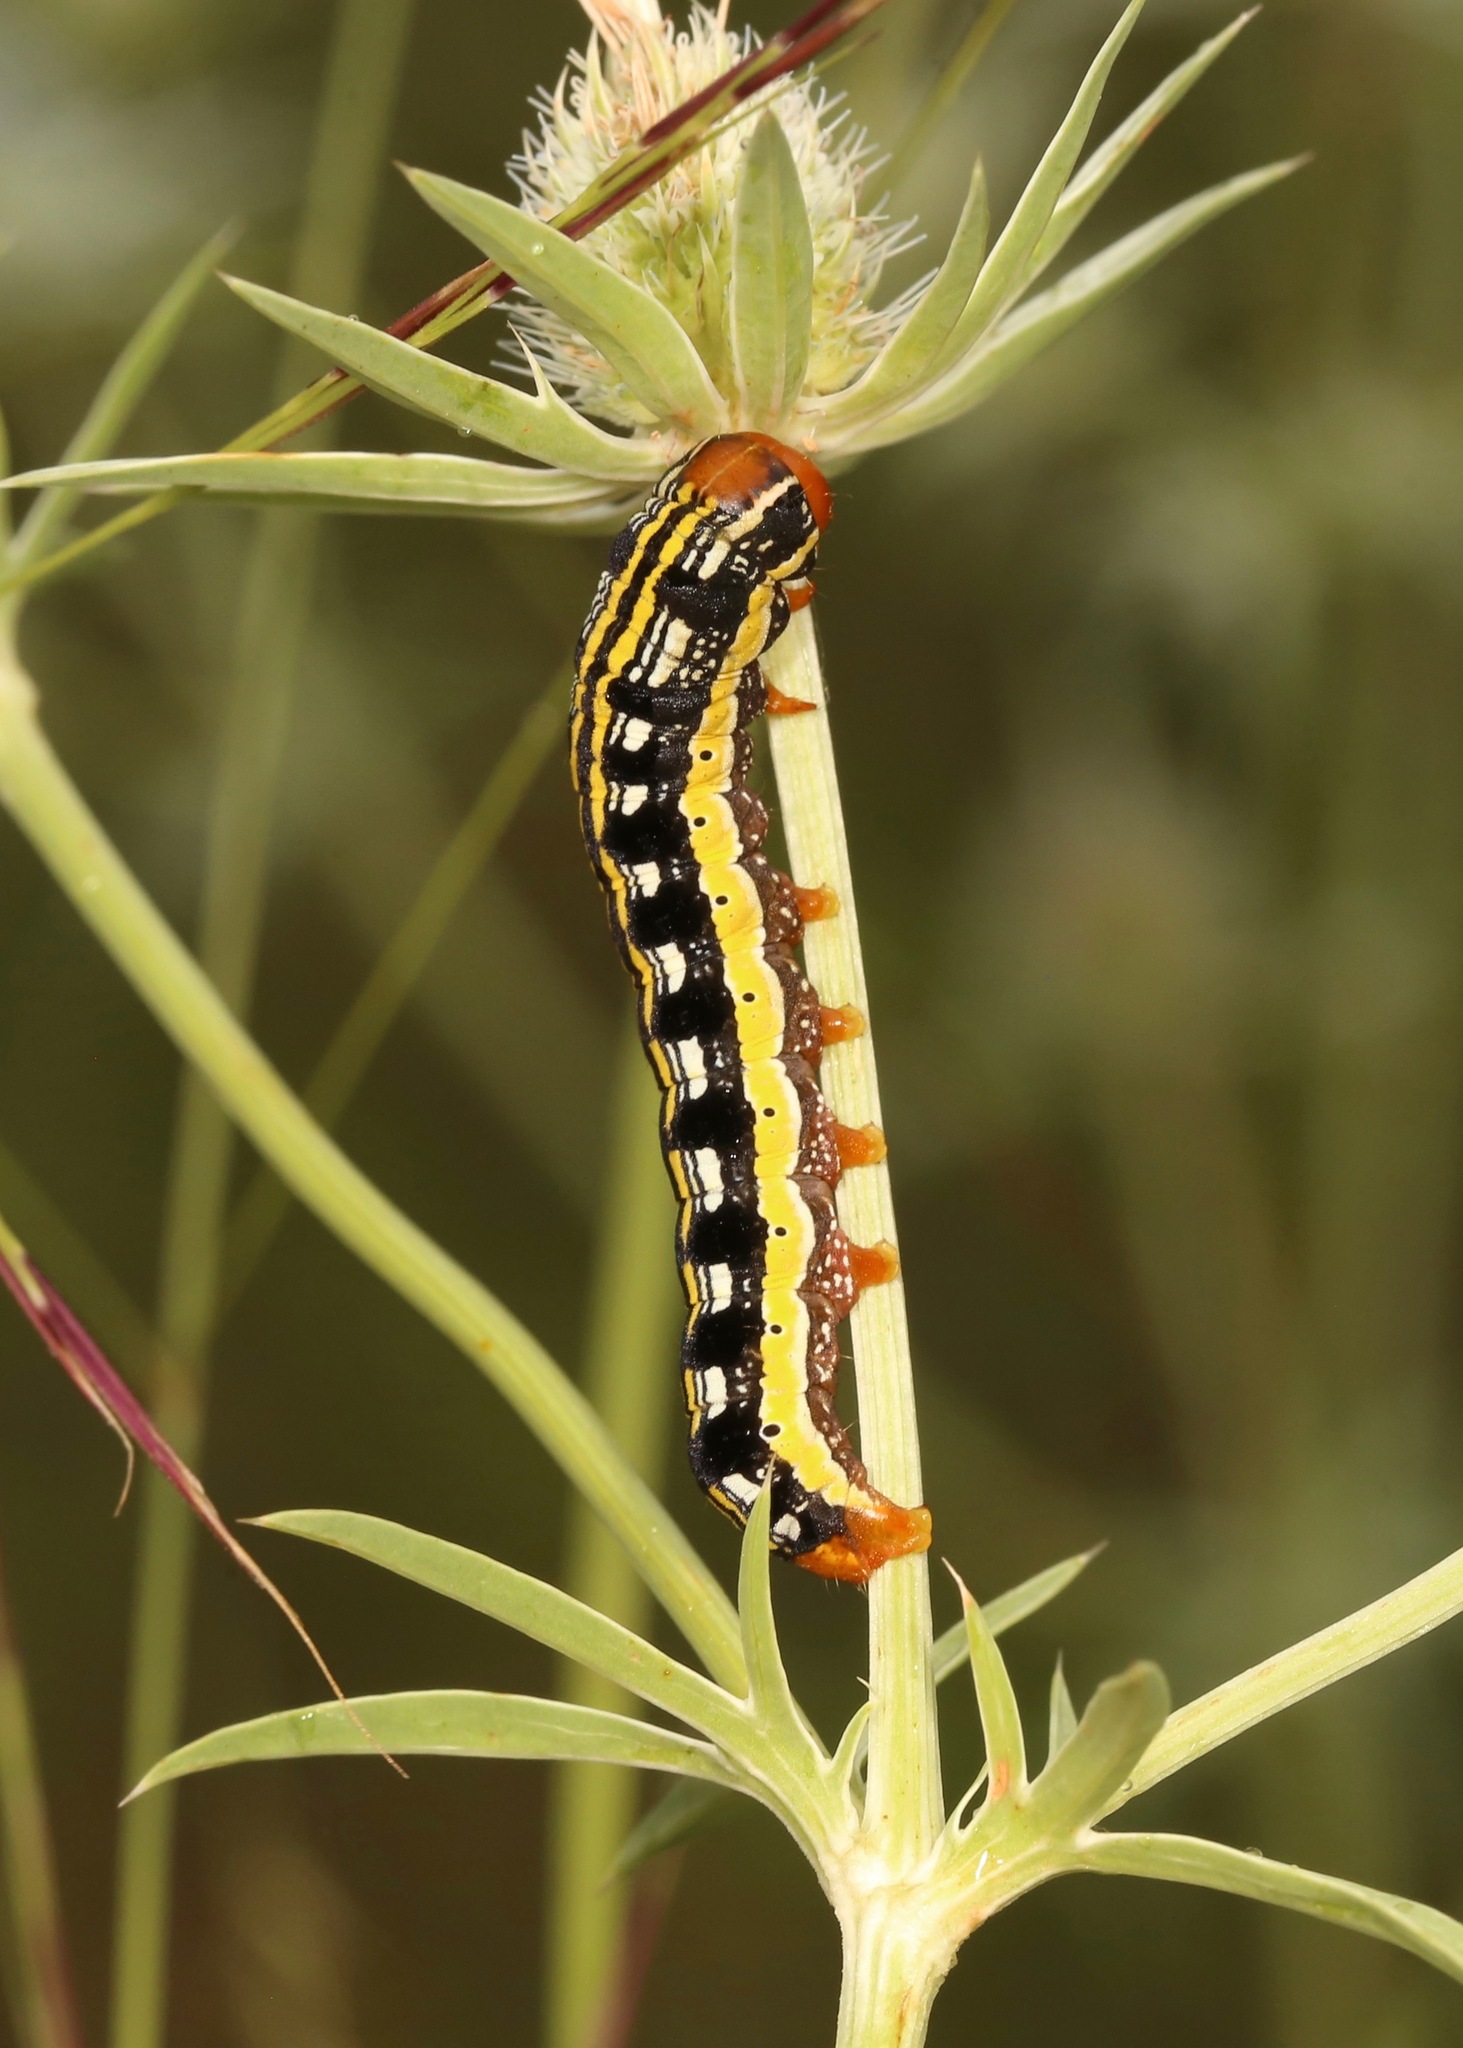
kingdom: Animalia
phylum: Arthropoda
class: Insecta
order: Lepidoptera
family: Noctuidae
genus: Schinia
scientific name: Schinia mexicana
